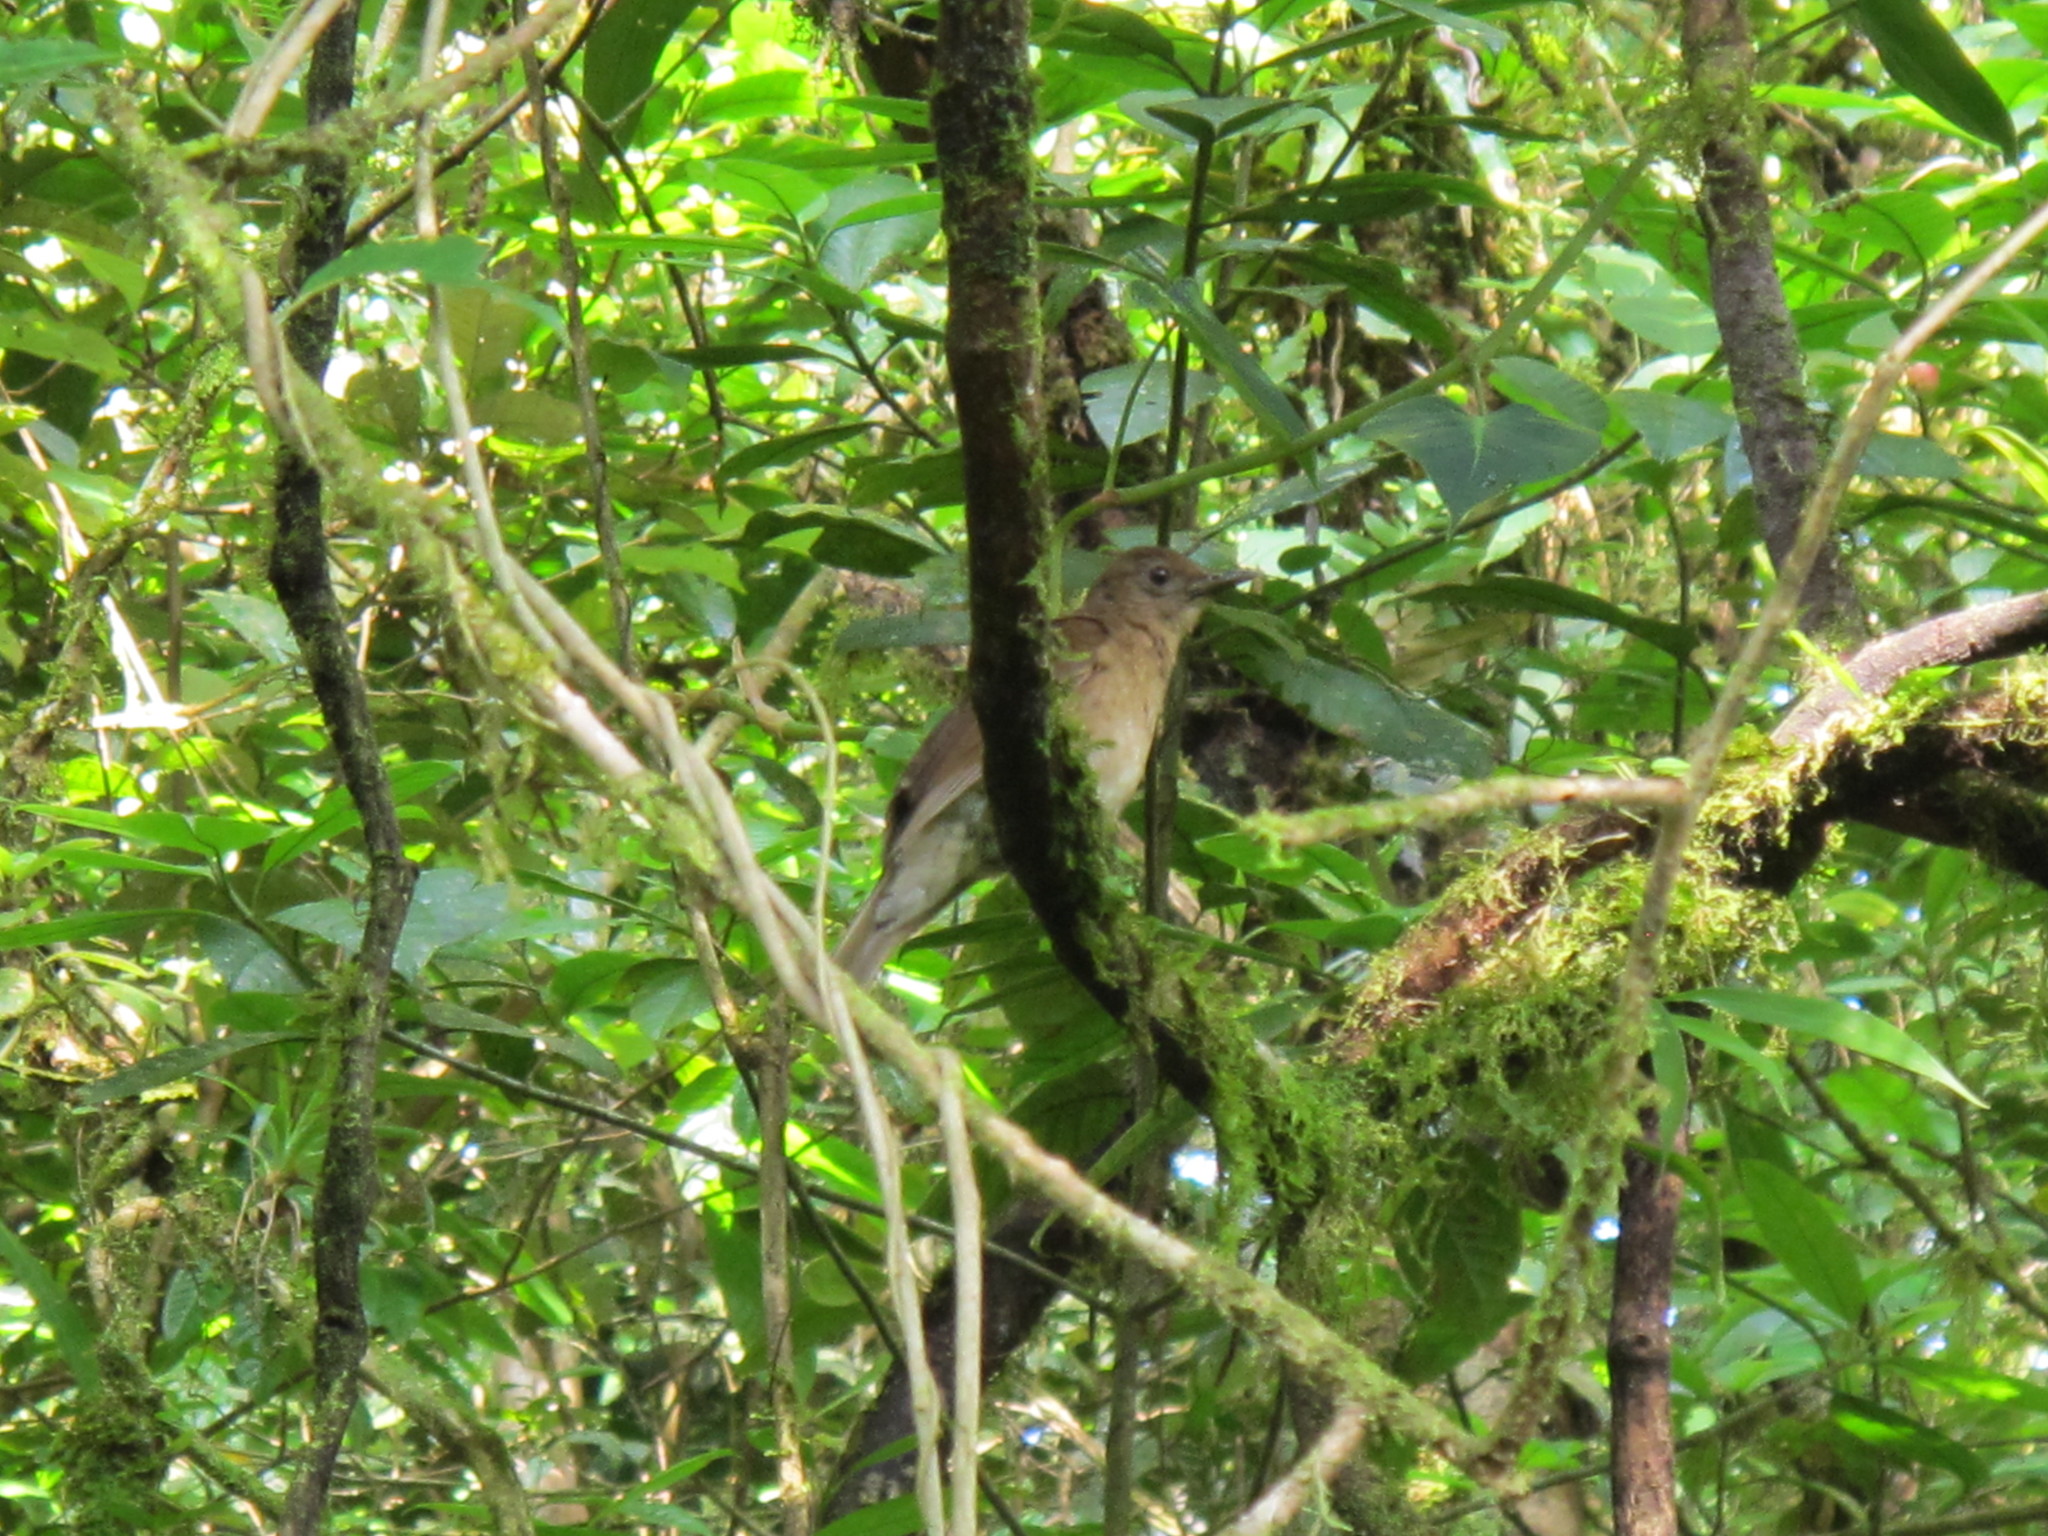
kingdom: Animalia
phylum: Chordata
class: Aves
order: Passeriformes
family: Turdidae
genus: Turdus
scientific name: Turdus obsoletus
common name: Pale-vented thrush
